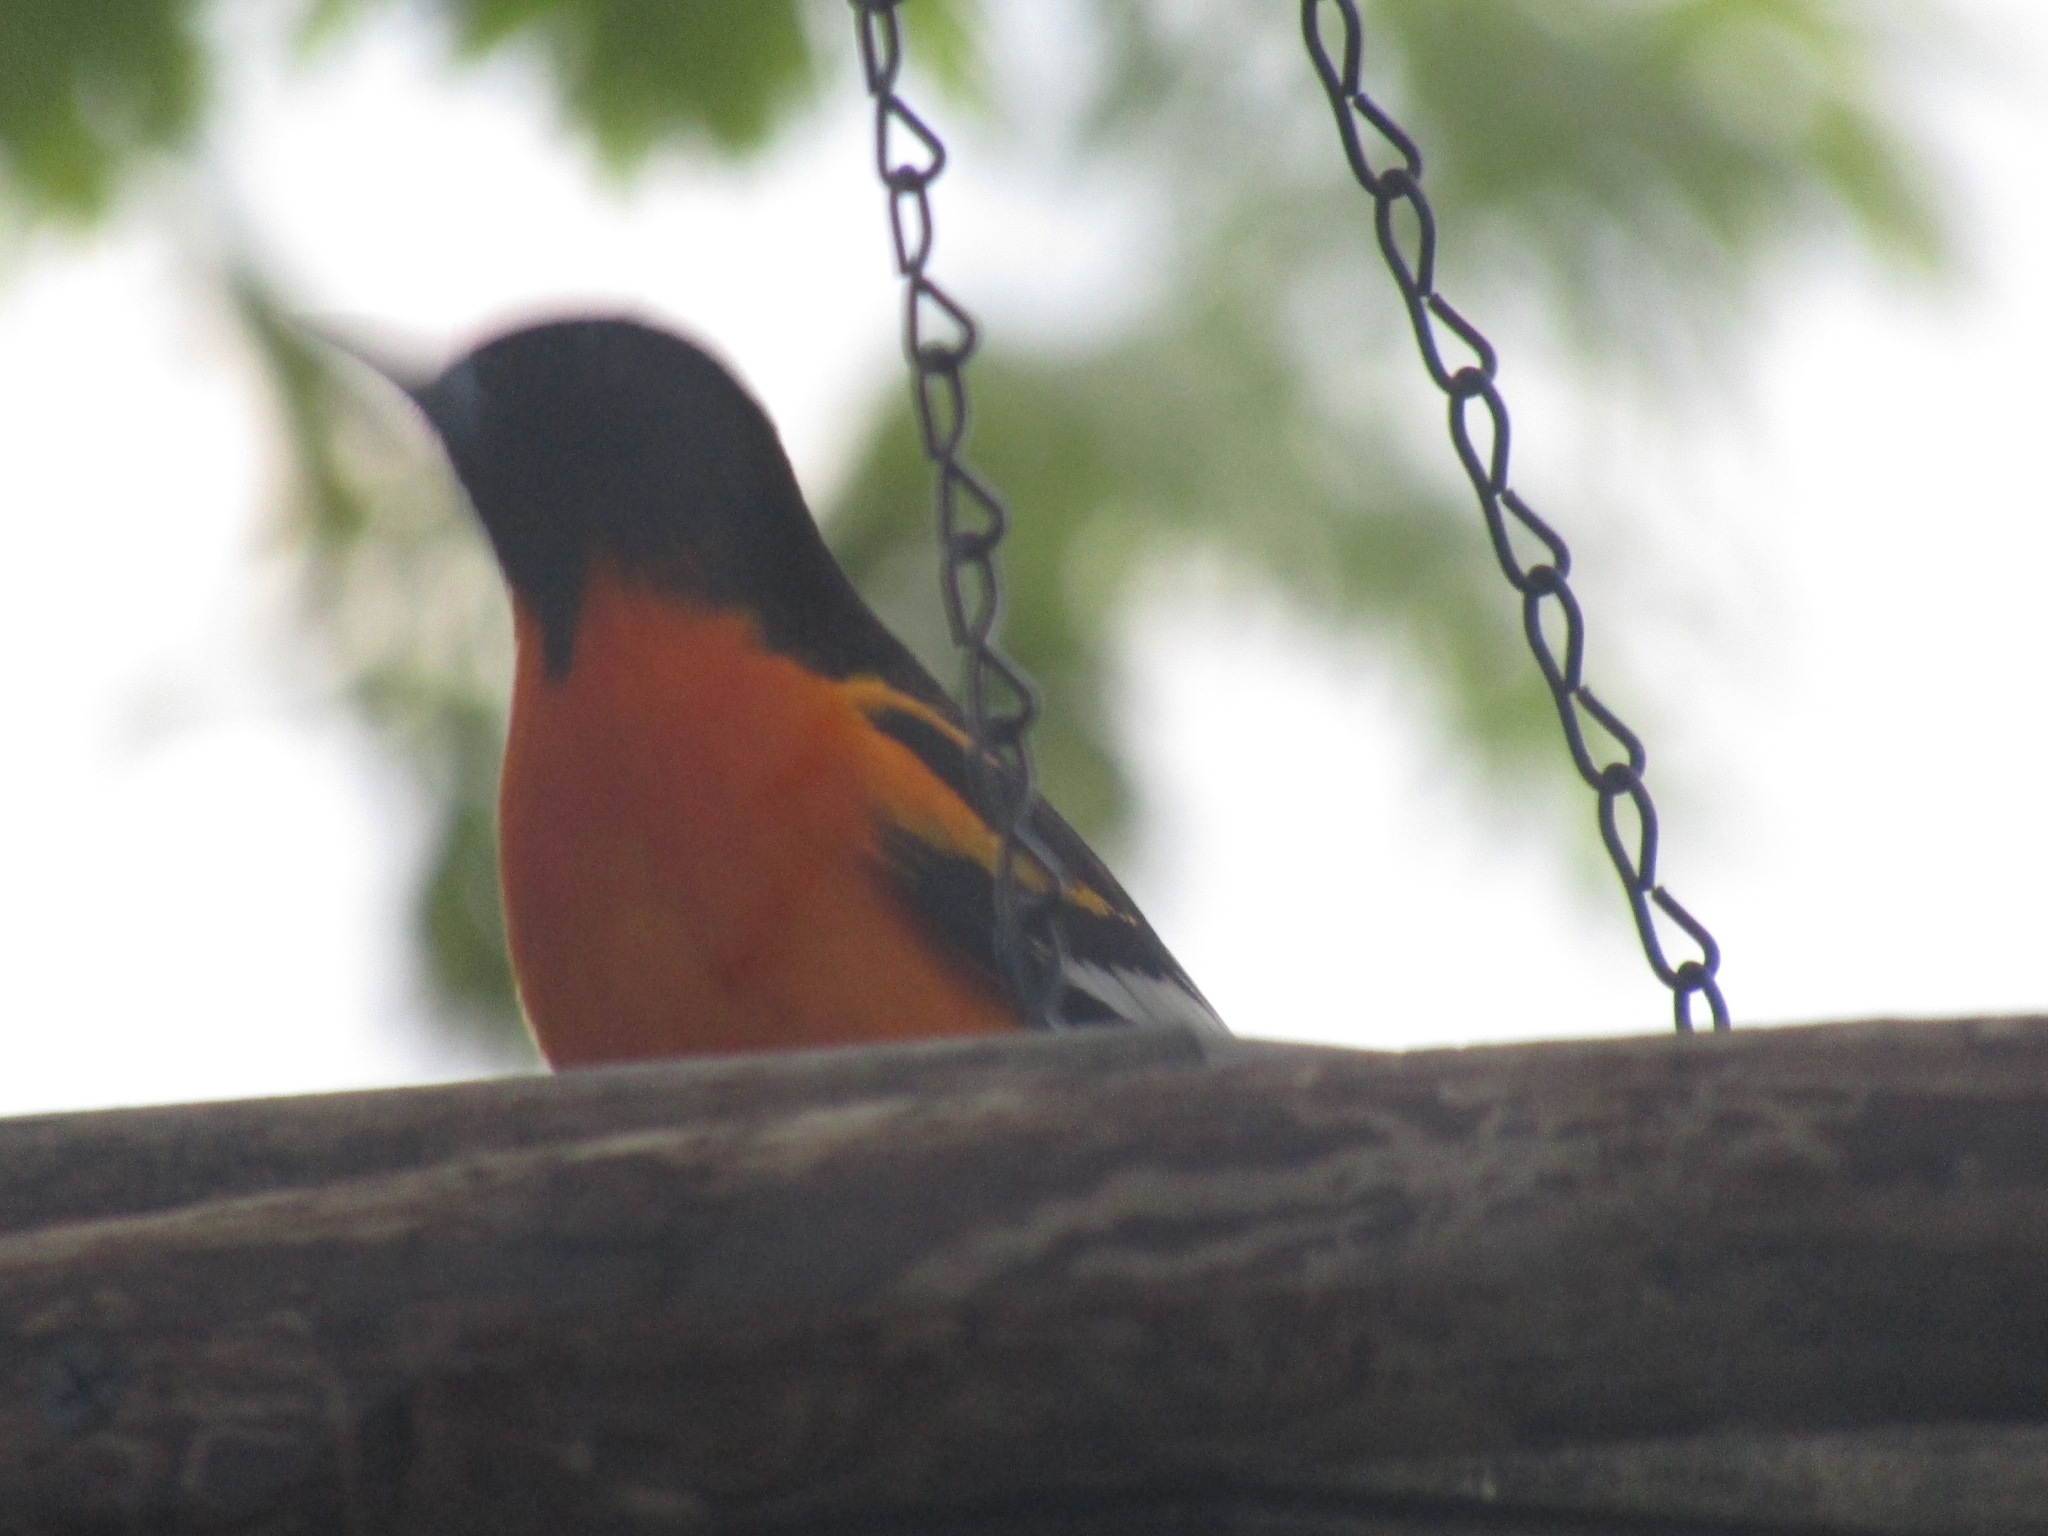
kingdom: Animalia
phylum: Chordata
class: Aves
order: Passeriformes
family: Icteridae
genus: Icterus
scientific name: Icterus galbula
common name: Baltimore oriole
